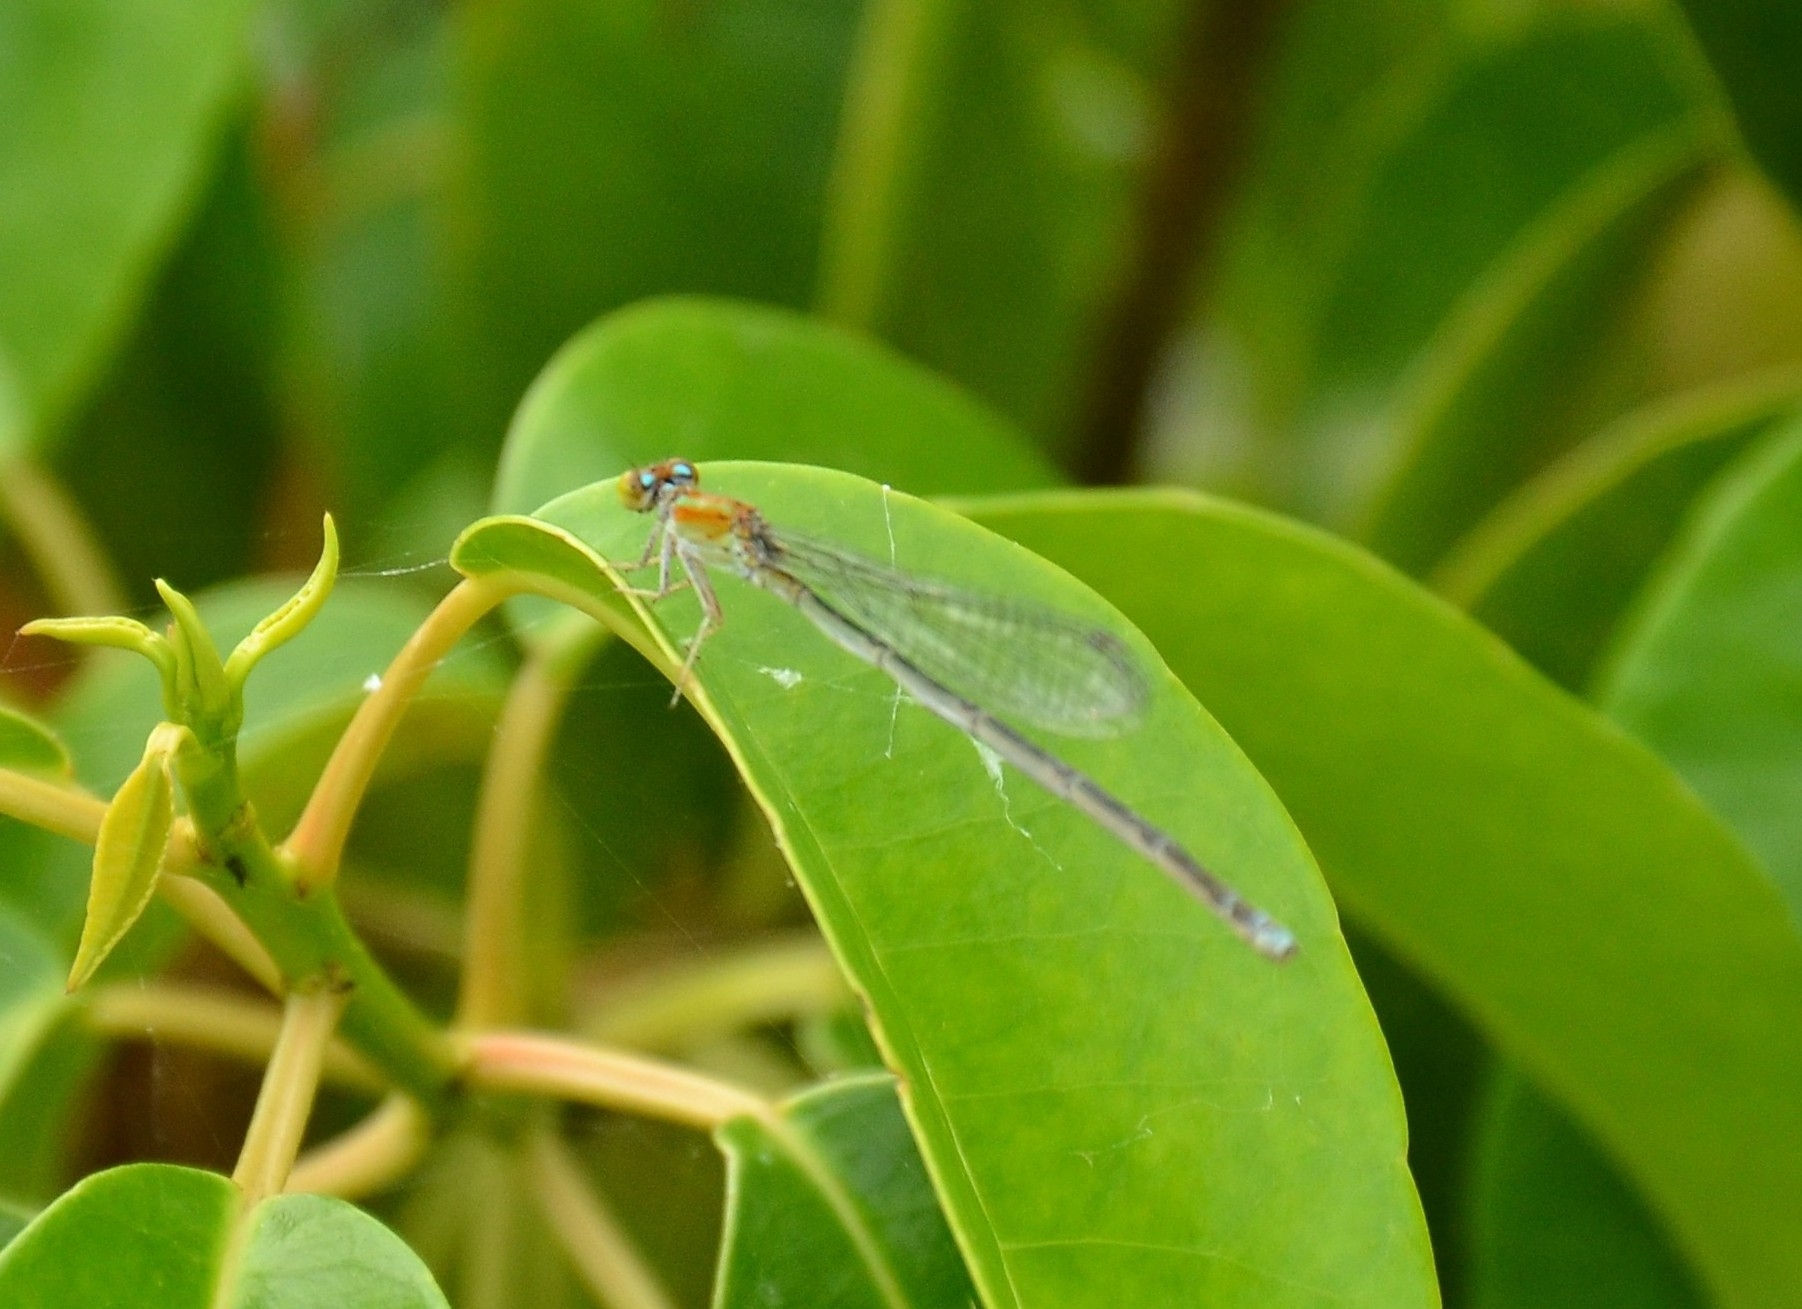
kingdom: Animalia
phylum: Arthropoda
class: Insecta
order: Odonata
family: Coenagrionidae
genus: Pseudagrion
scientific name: Pseudagrion microcephalum
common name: Blue riverdamsel
